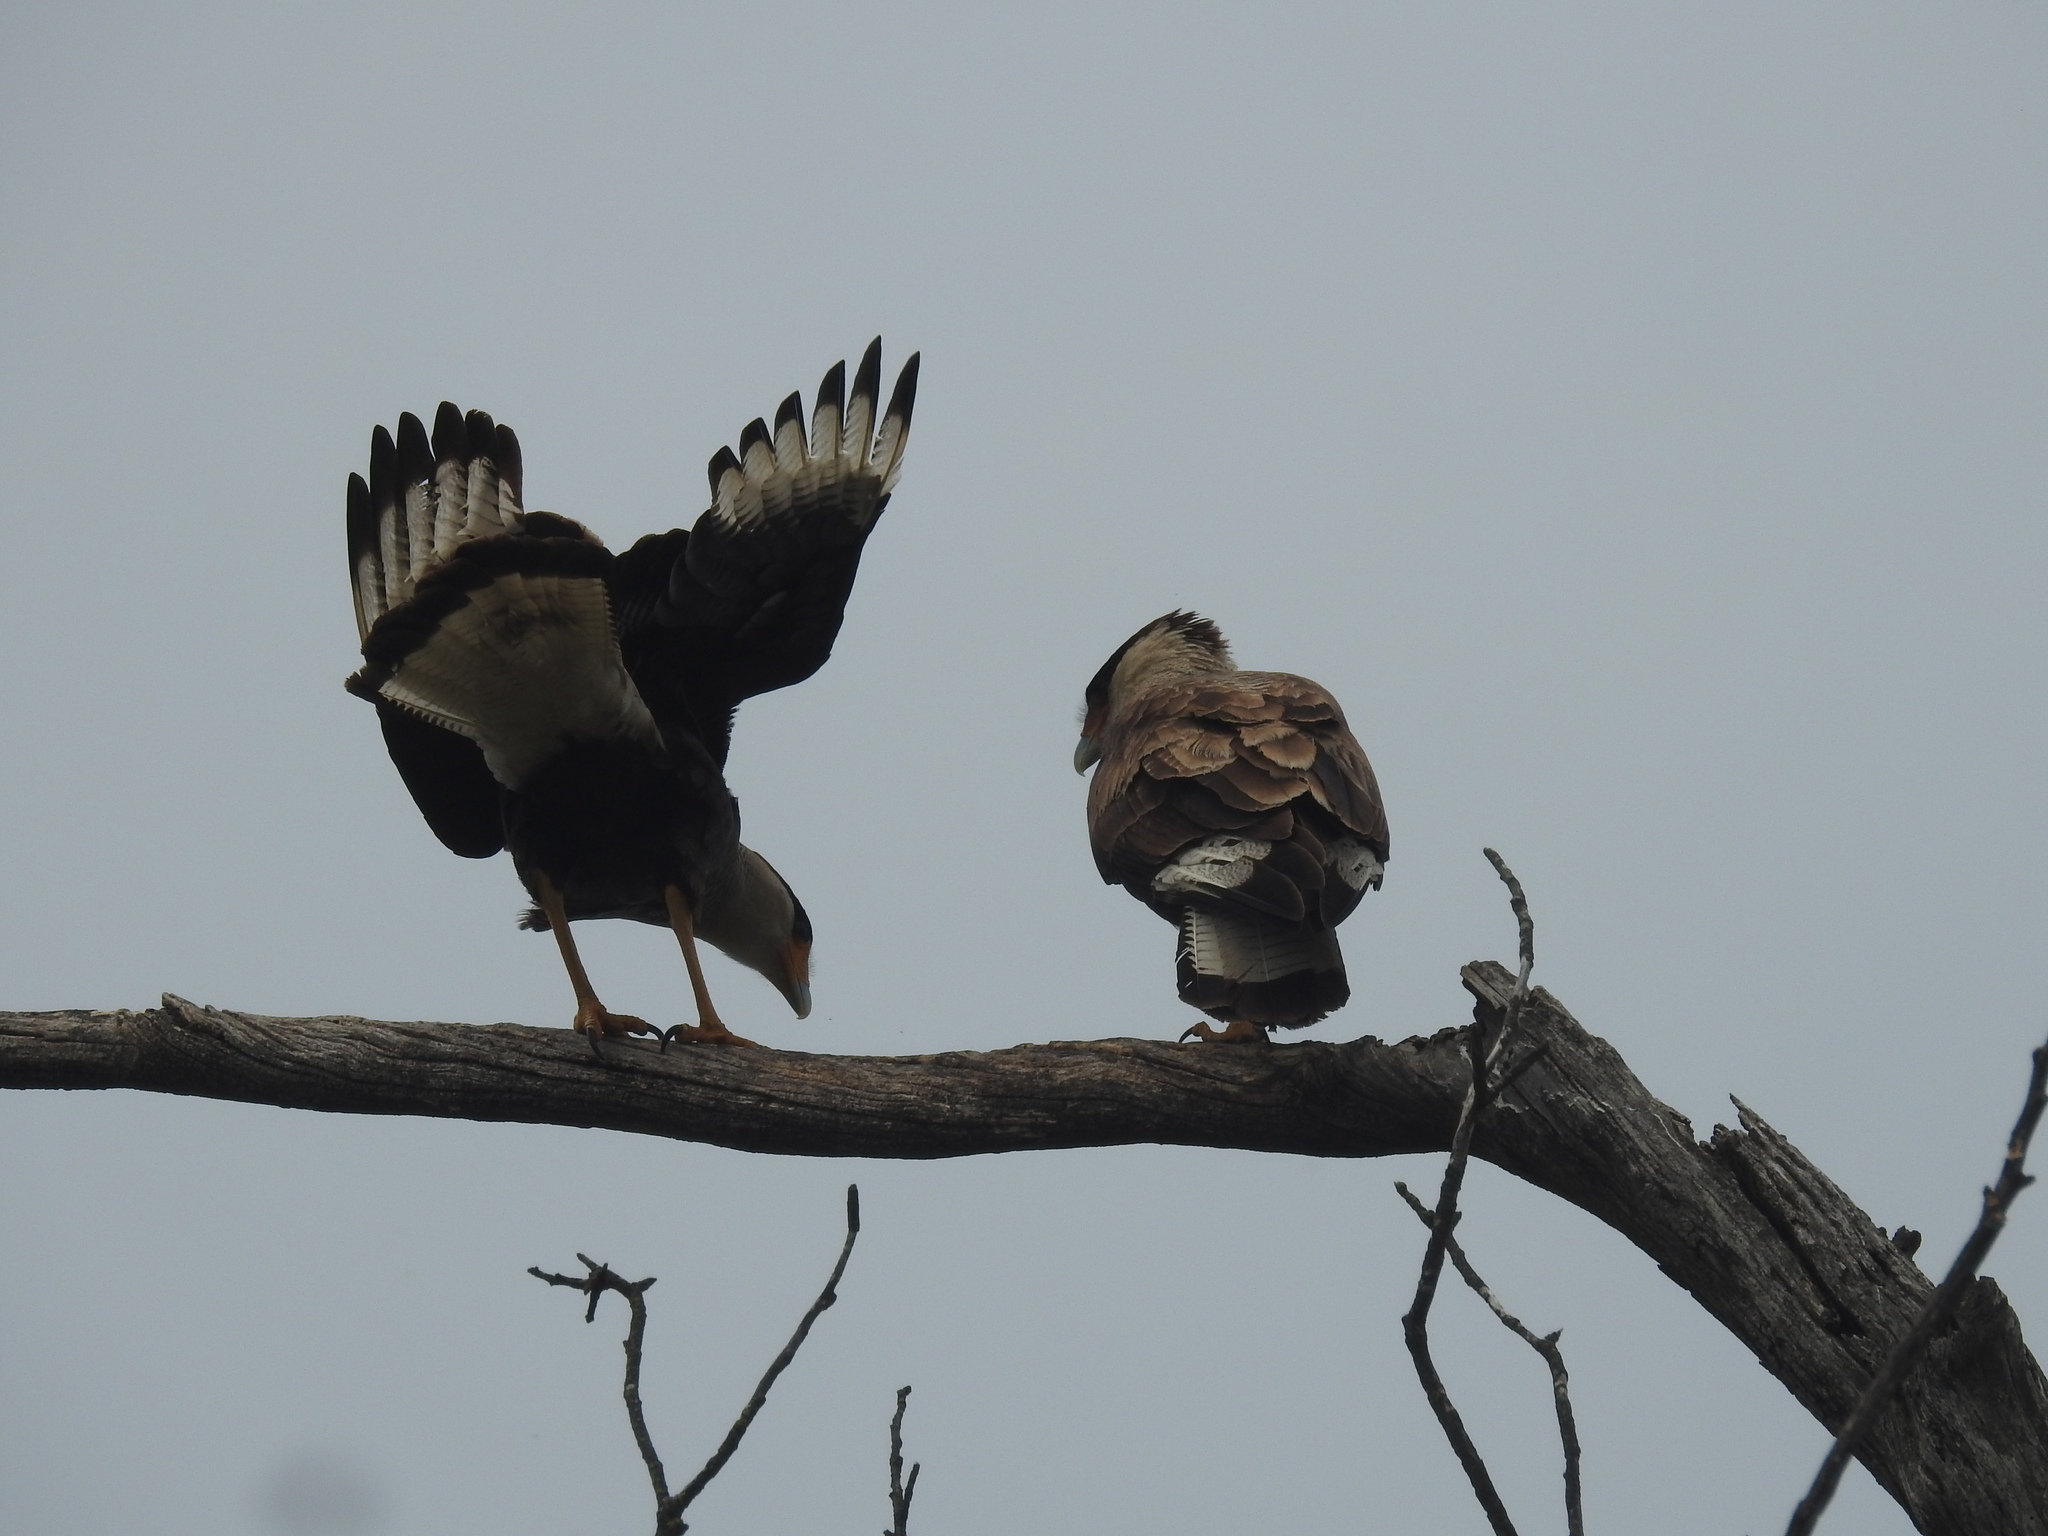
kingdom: Animalia
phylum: Chordata
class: Aves
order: Falconiformes
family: Falconidae
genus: Caracara
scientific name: Caracara plancus
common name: Southern caracara
